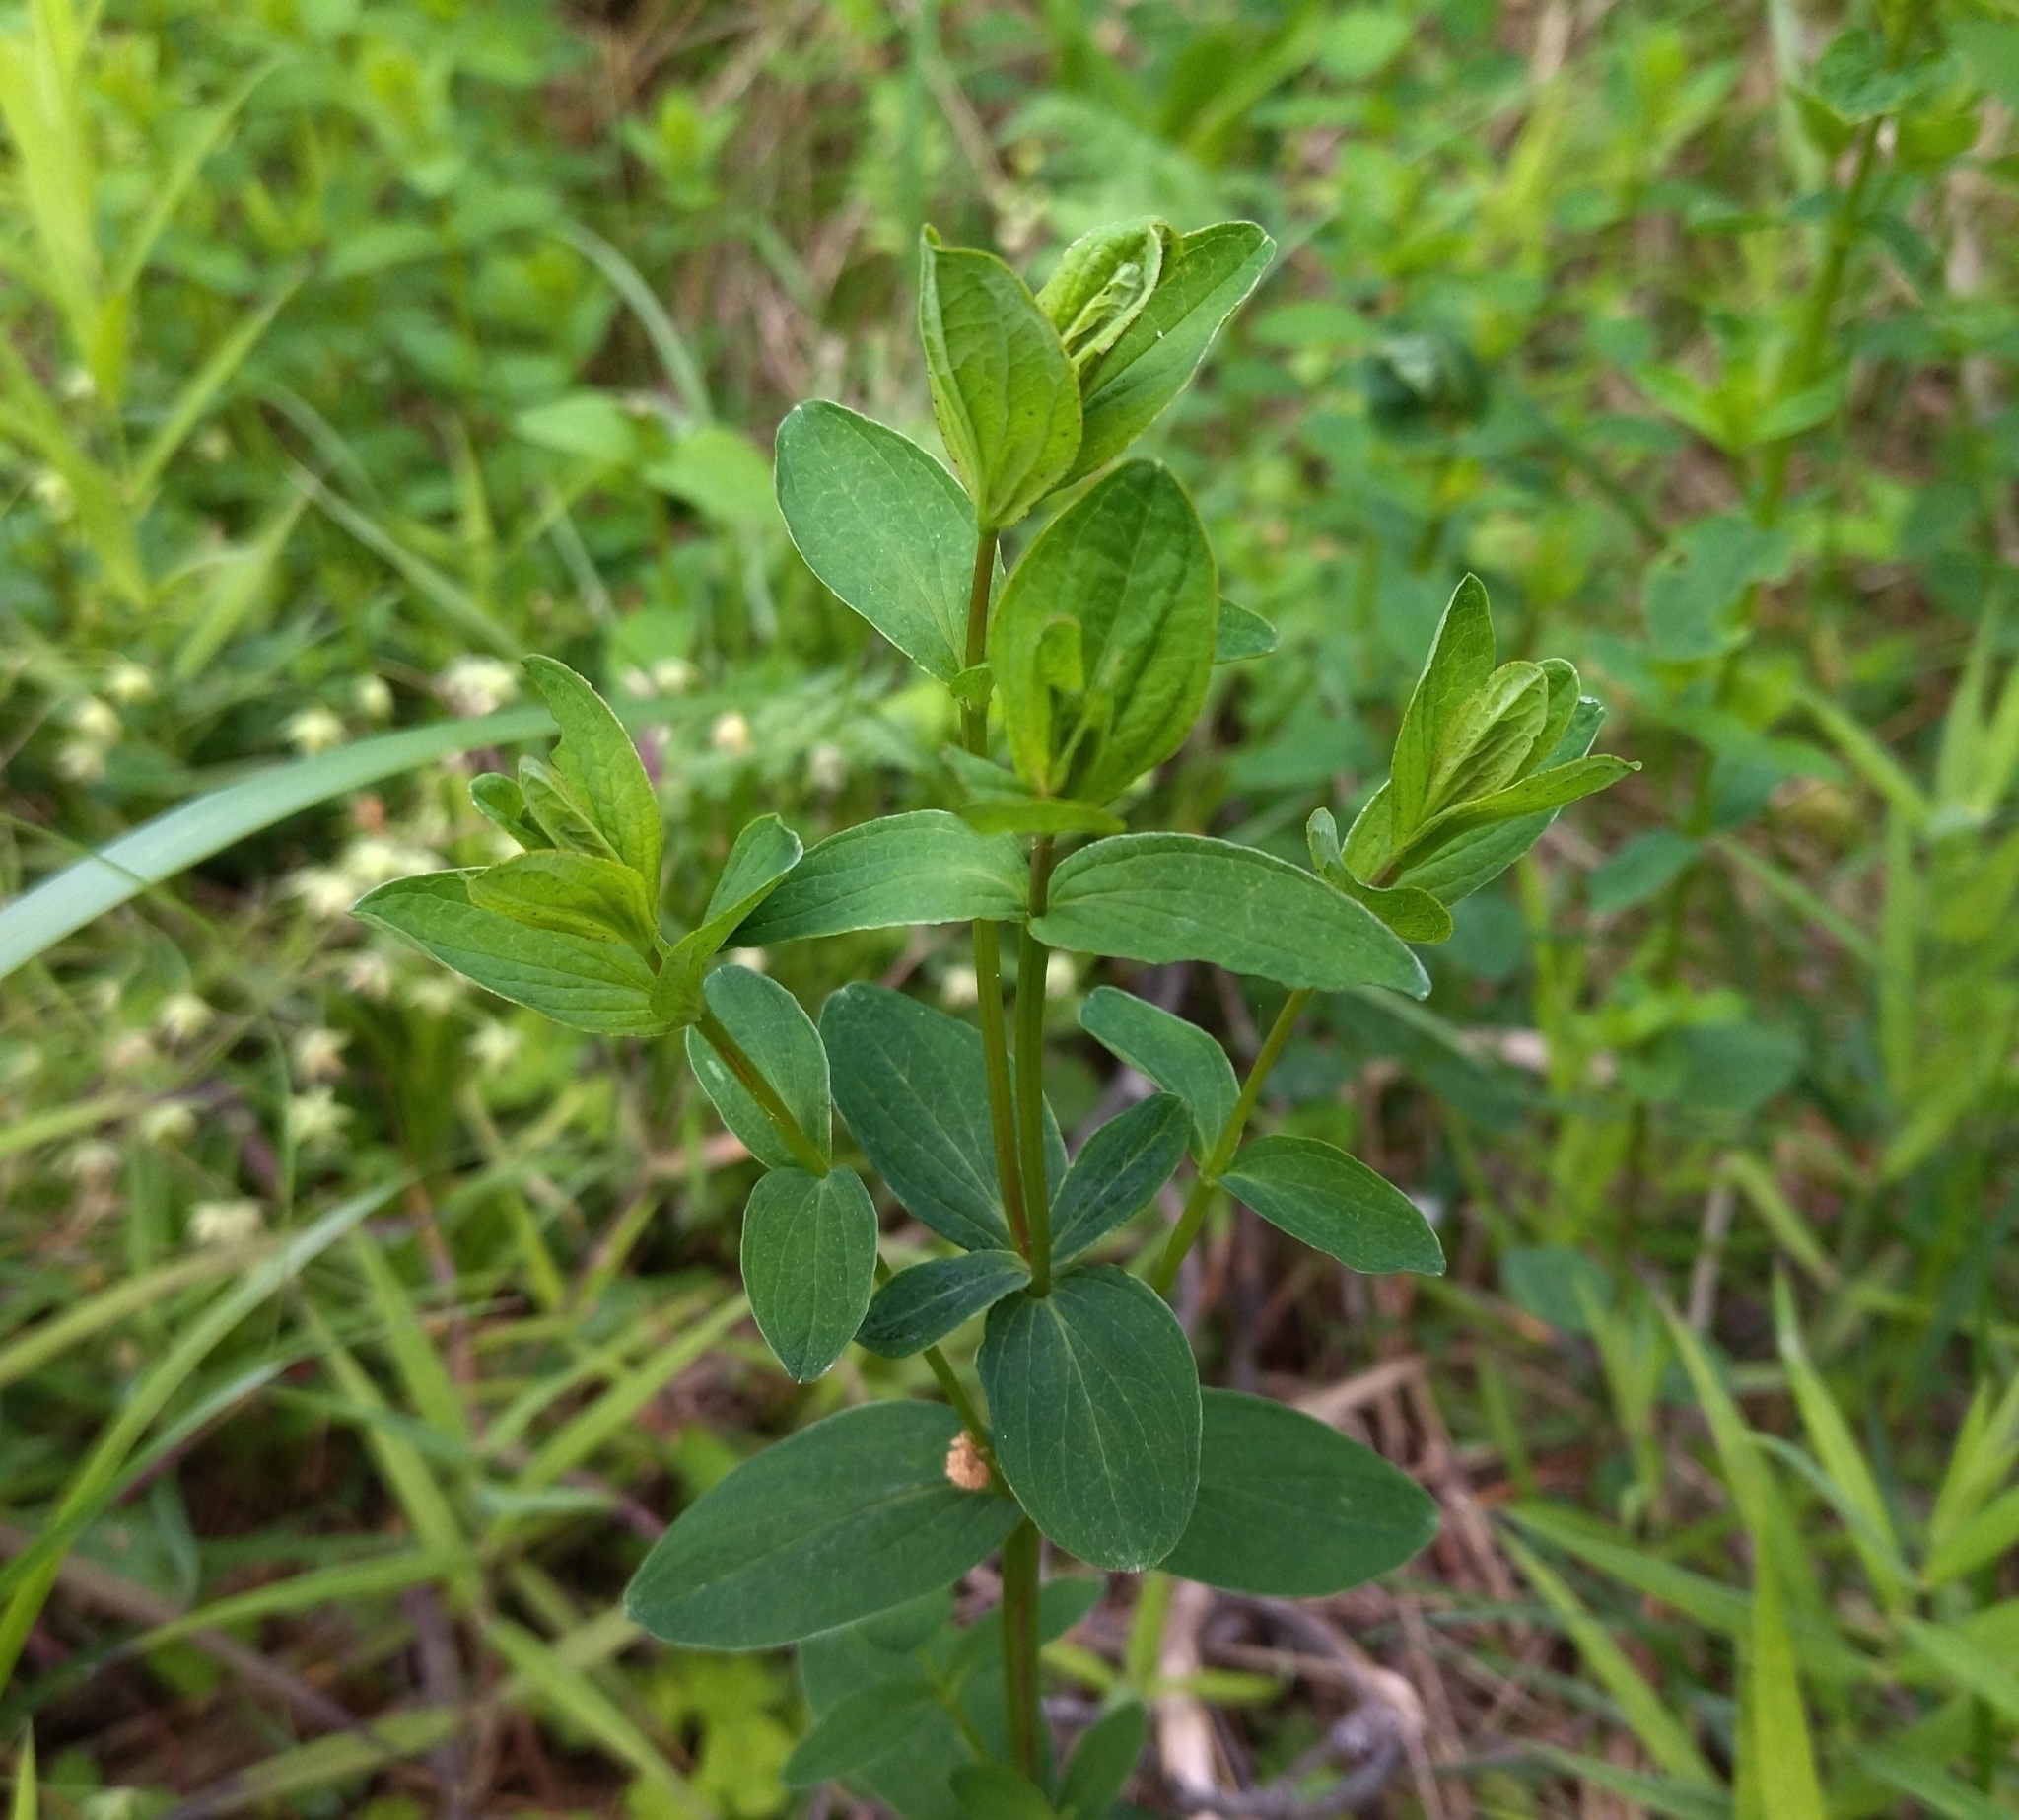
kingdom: Plantae
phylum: Tracheophyta
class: Magnoliopsida
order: Malpighiales
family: Hypericaceae
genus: Hypericum
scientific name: Hypericum maculatum
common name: Imperforate st. john's-wort
